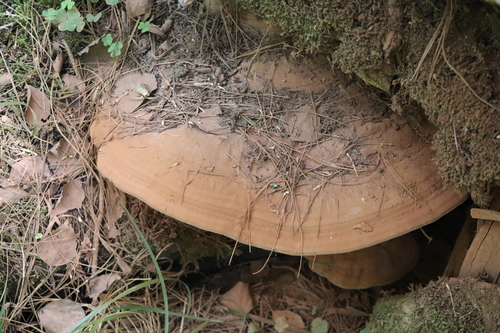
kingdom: Fungi
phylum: Basidiomycota
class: Agaricomycetes
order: Polyporales
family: Polyporaceae
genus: Ganoderma
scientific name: Ganoderma applanatum
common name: Artist's bracket
